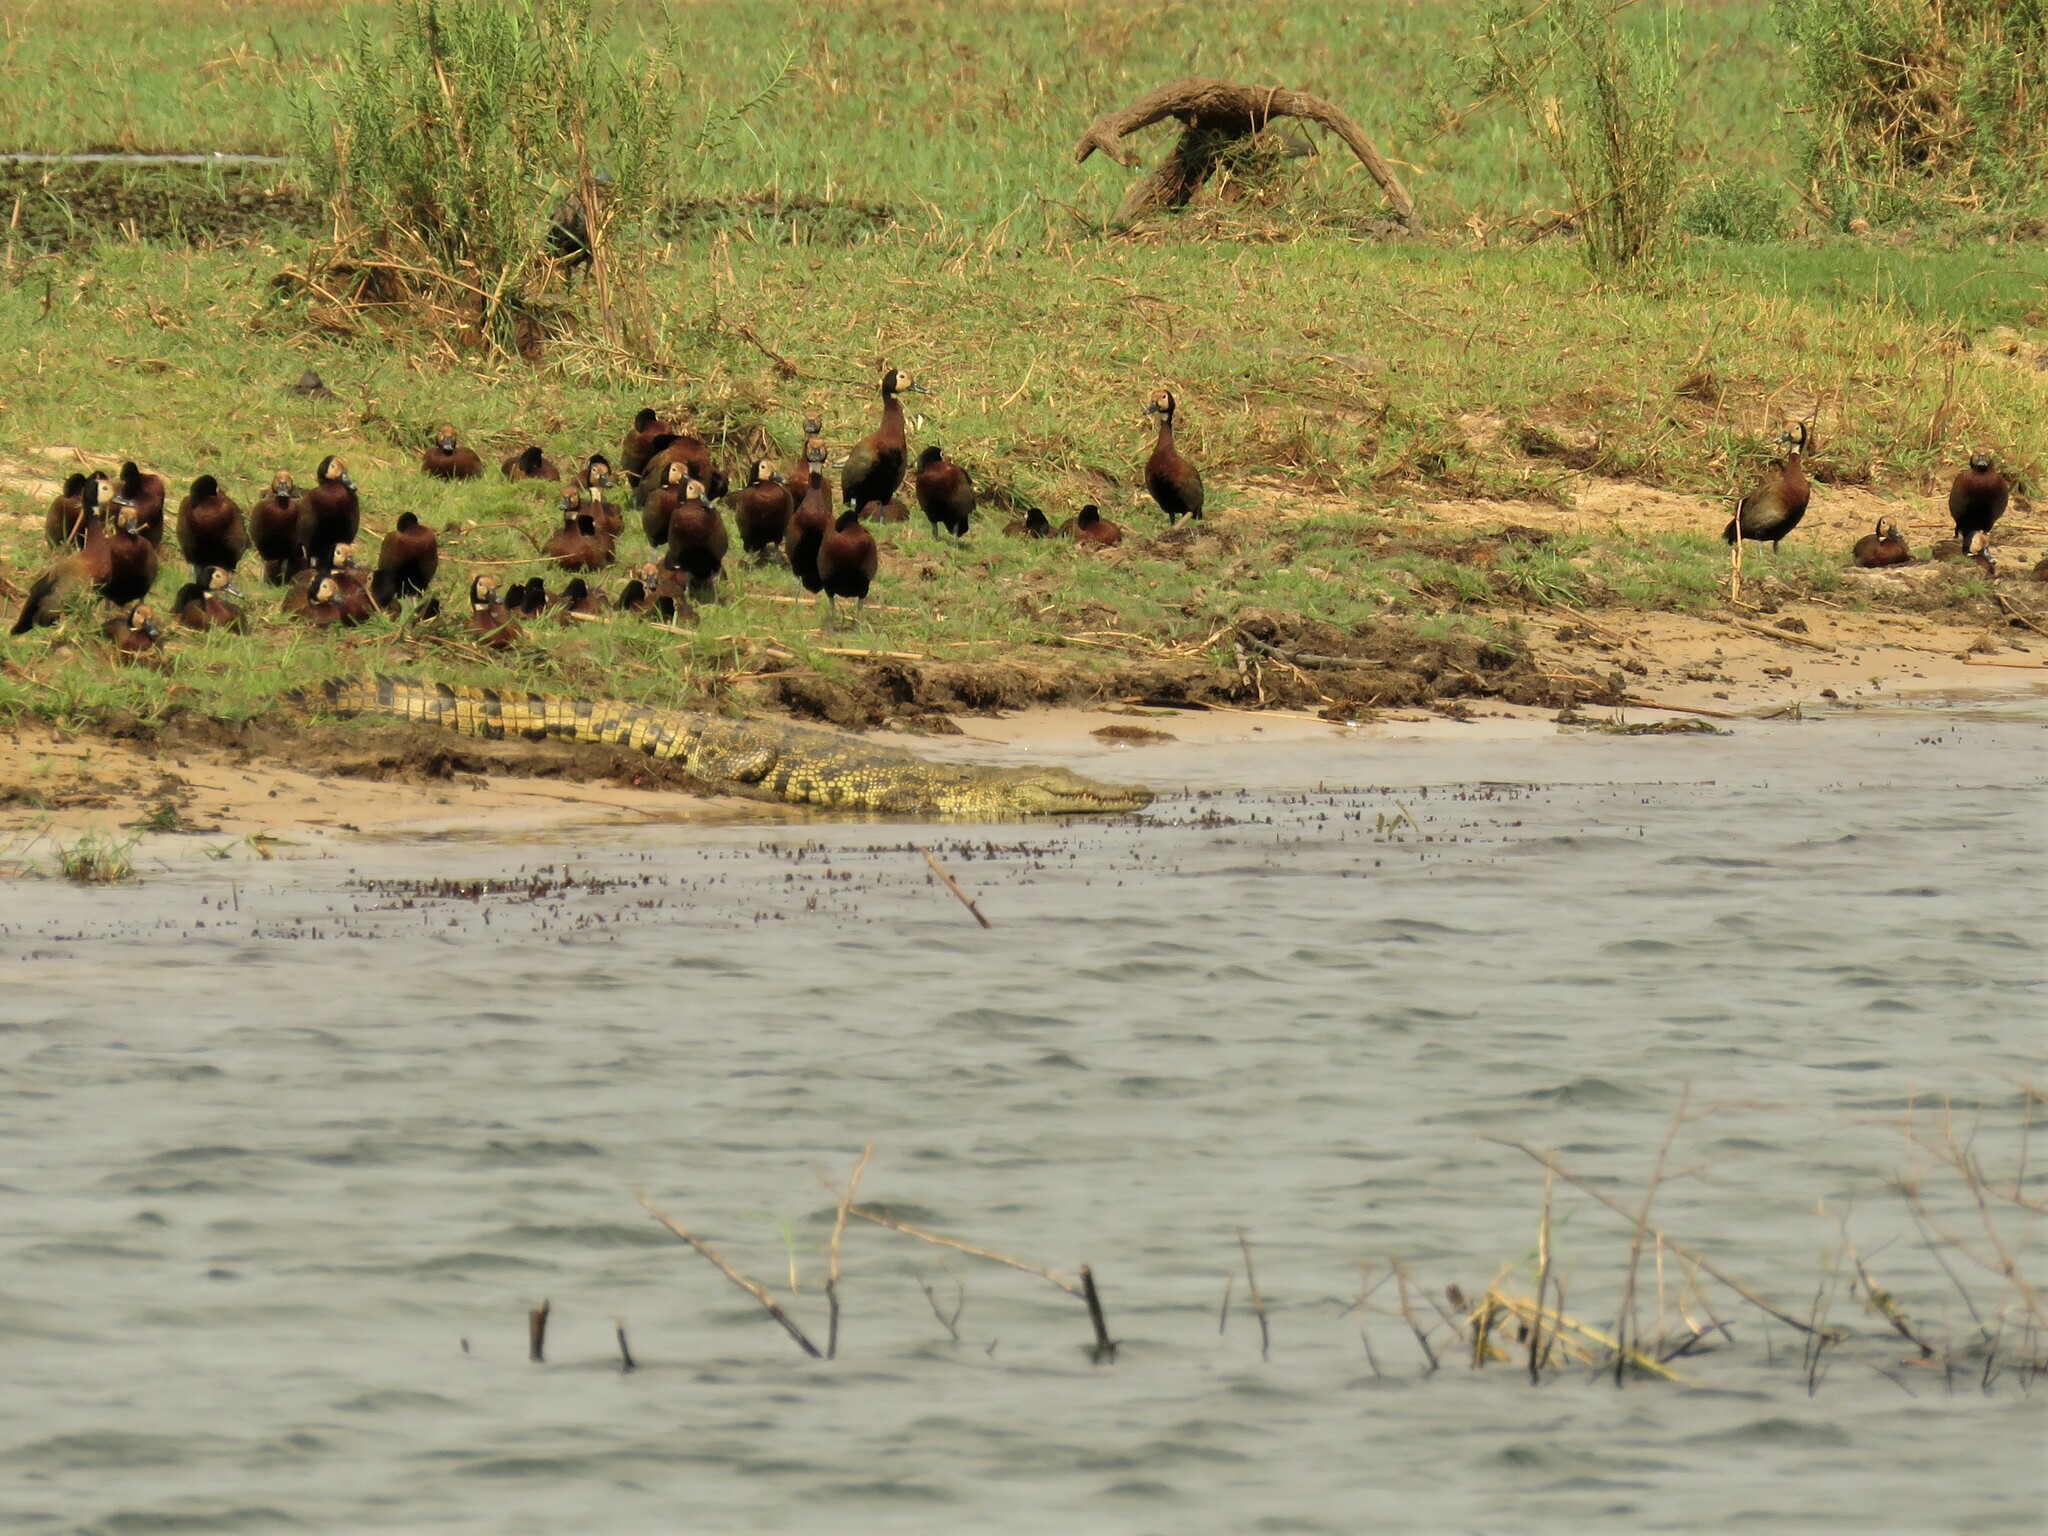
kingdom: Animalia
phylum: Chordata
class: Crocodylia
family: Crocodylidae
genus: Crocodylus
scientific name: Crocodylus niloticus
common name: Nile crocodile
